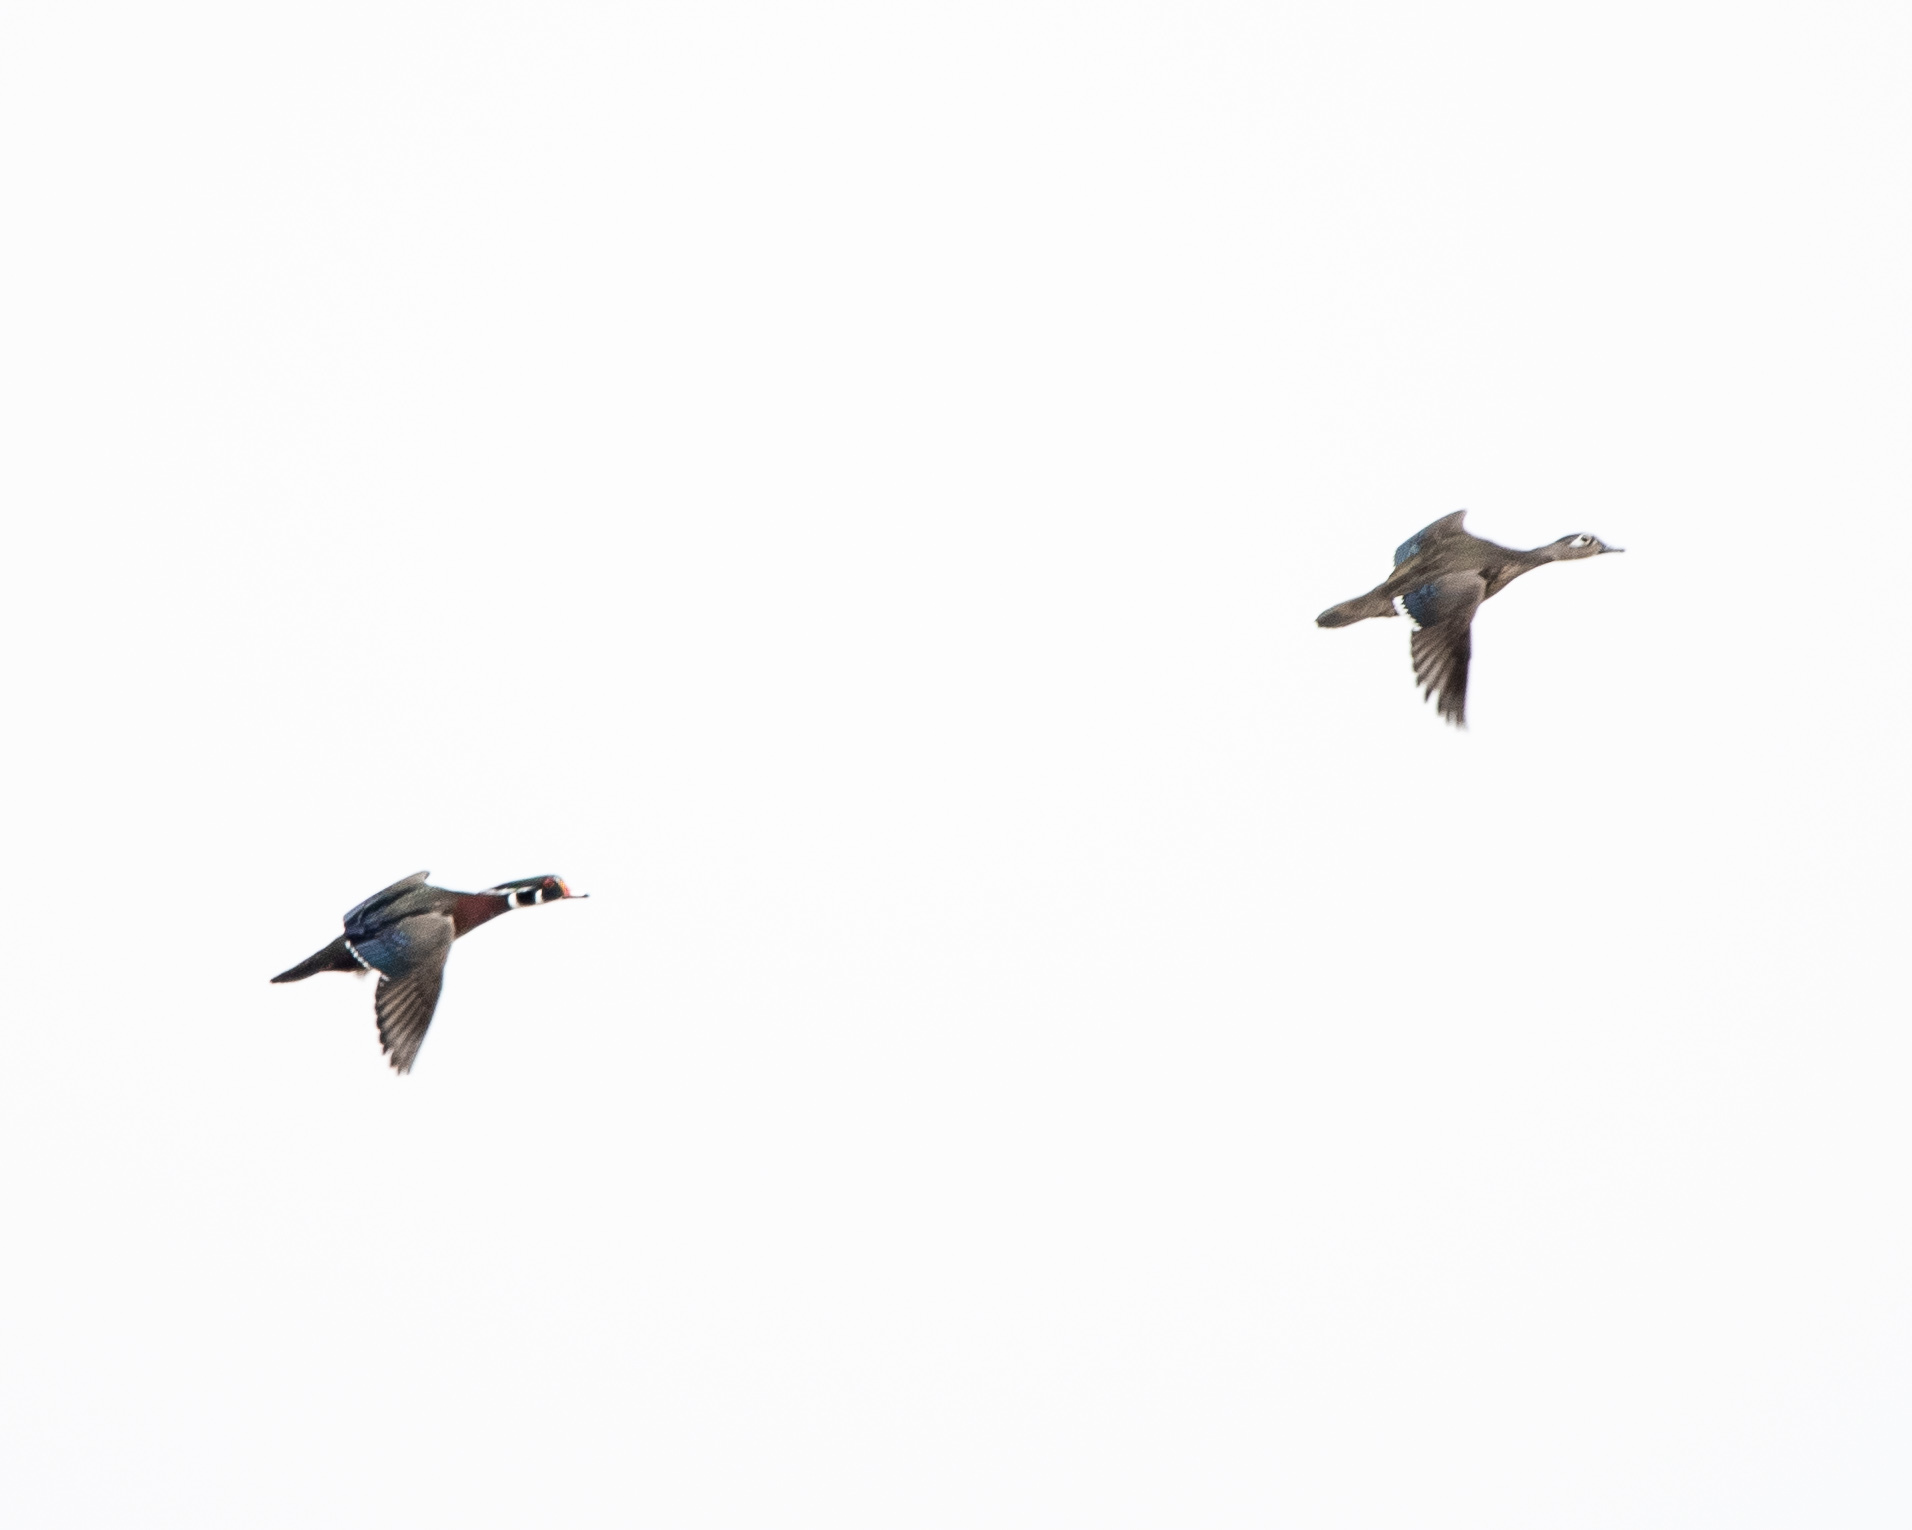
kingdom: Animalia
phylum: Chordata
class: Aves
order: Anseriformes
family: Anatidae
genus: Aix
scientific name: Aix sponsa
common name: Wood duck
